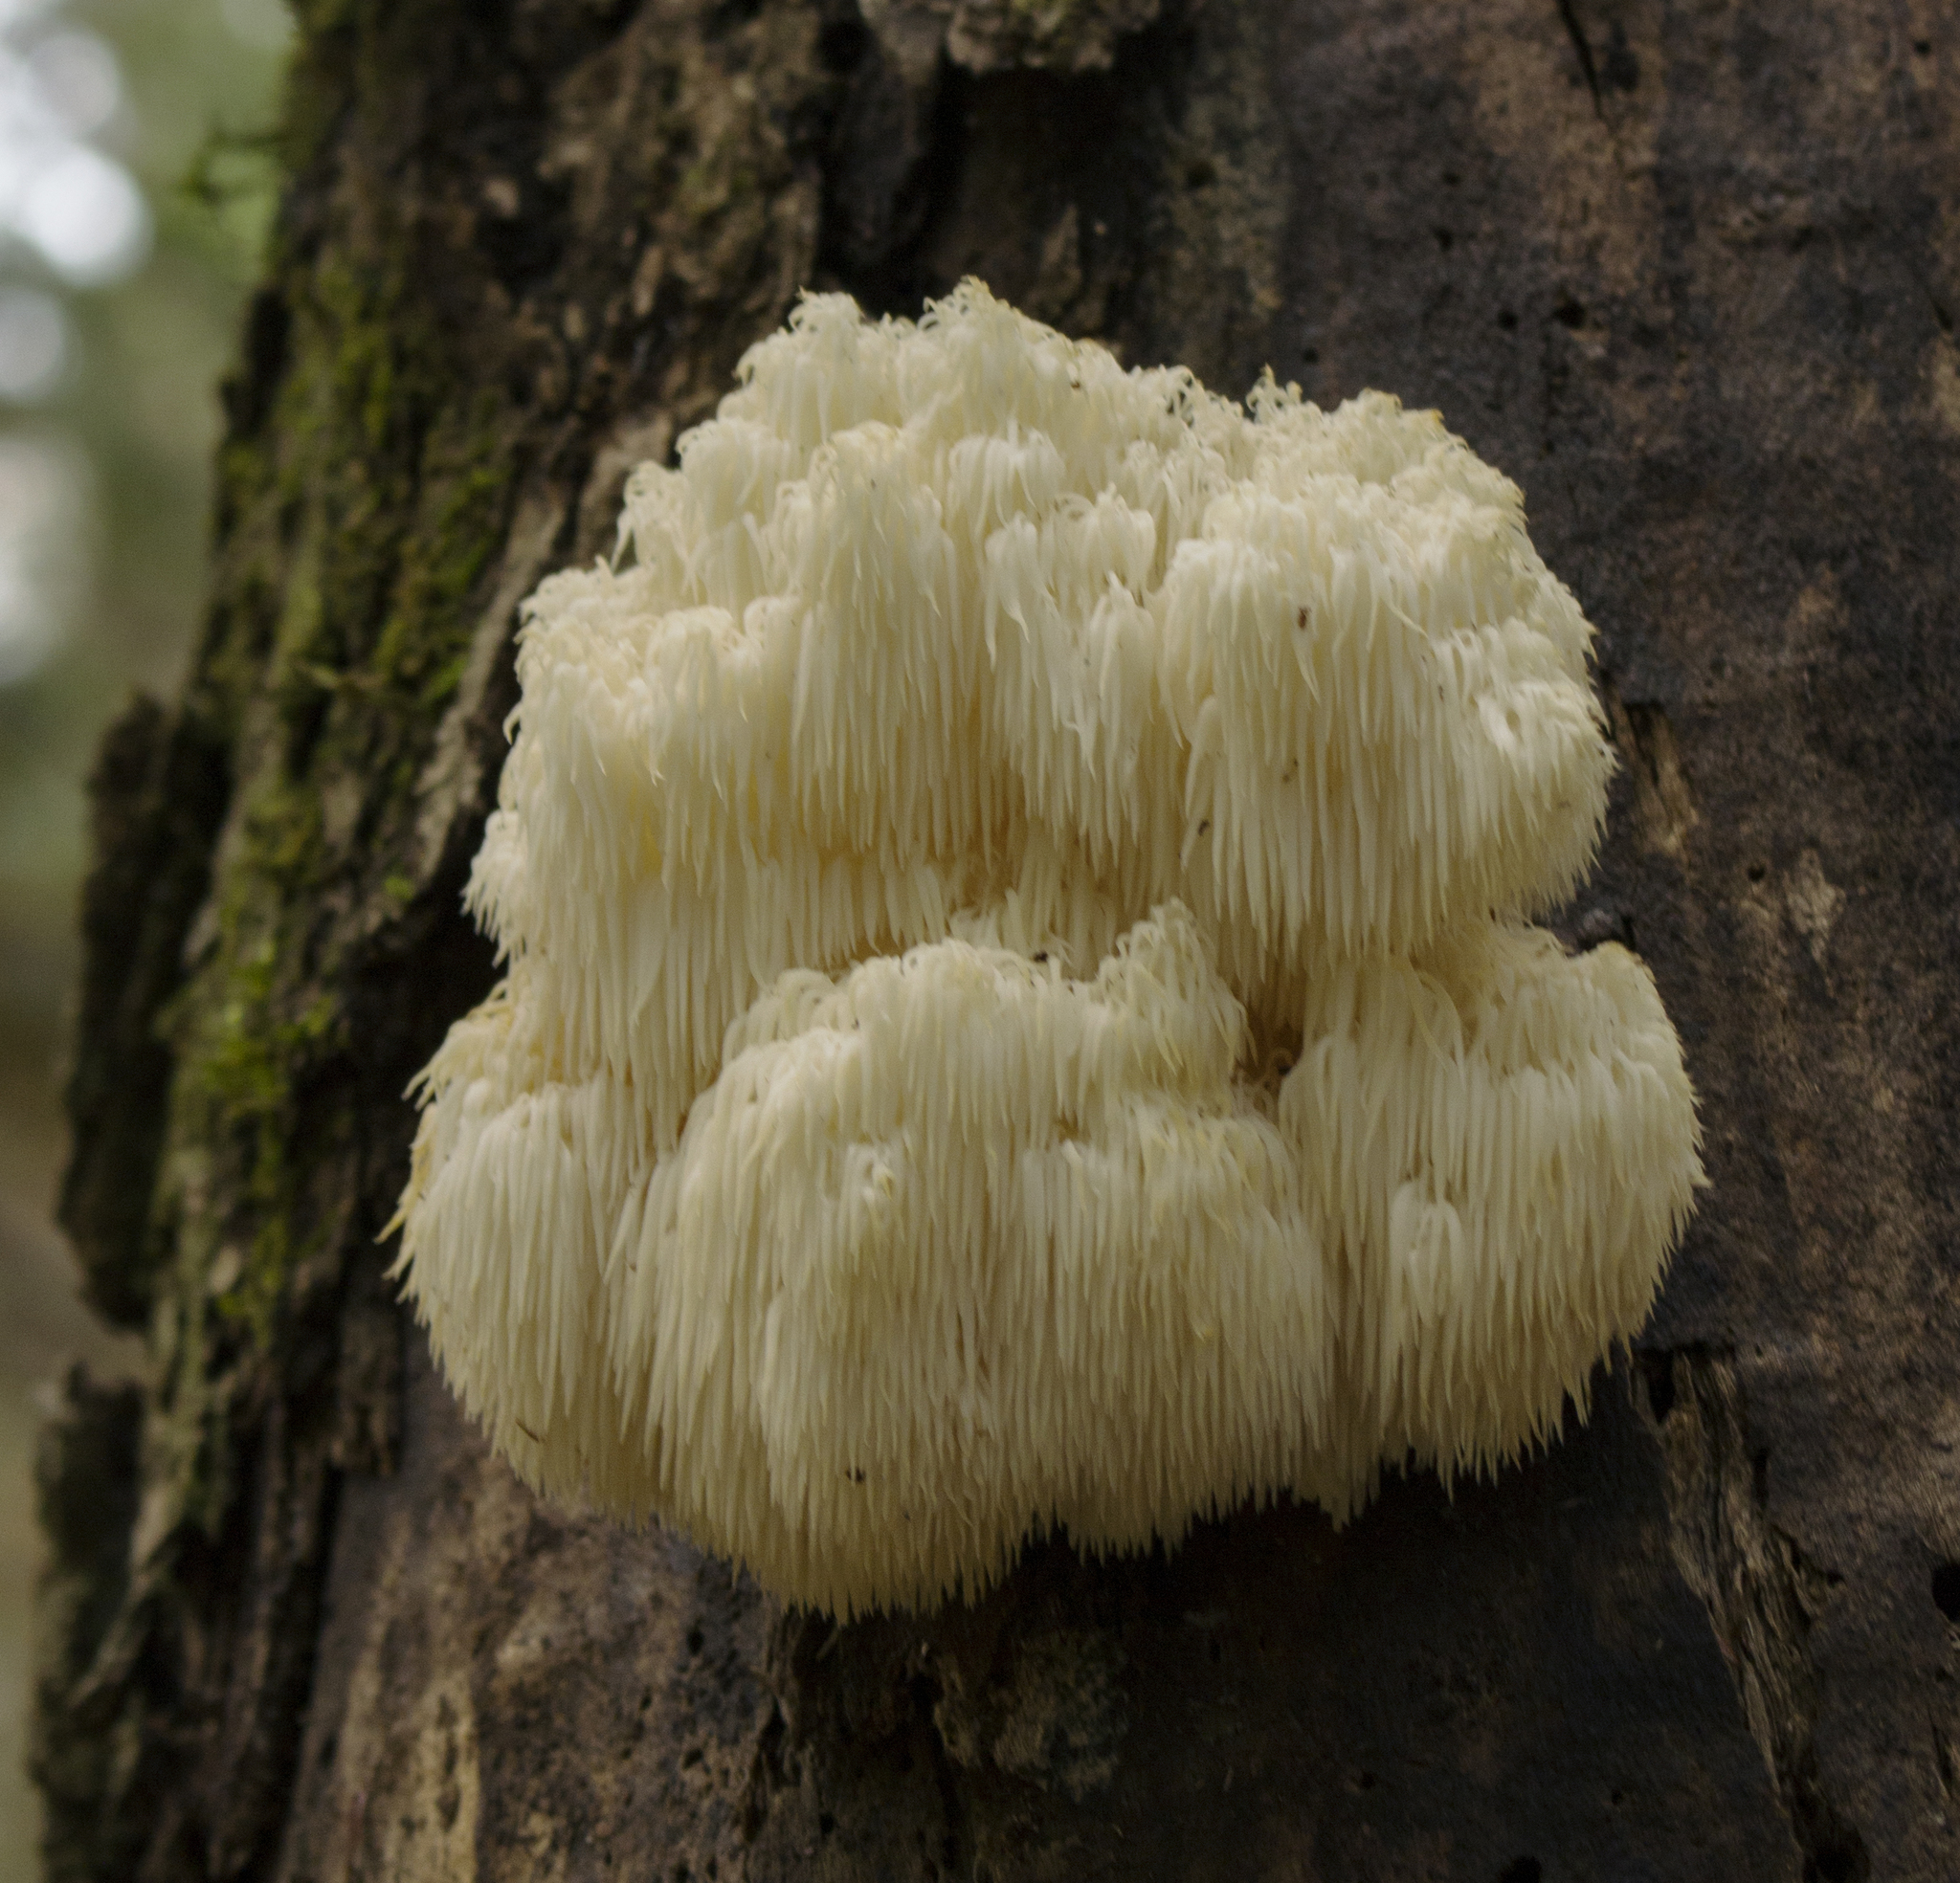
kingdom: Fungi
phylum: Basidiomycota
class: Agaricomycetes
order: Russulales
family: Hericiaceae
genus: Hericium
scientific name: Hericium americanum
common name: Bear's head tooth
